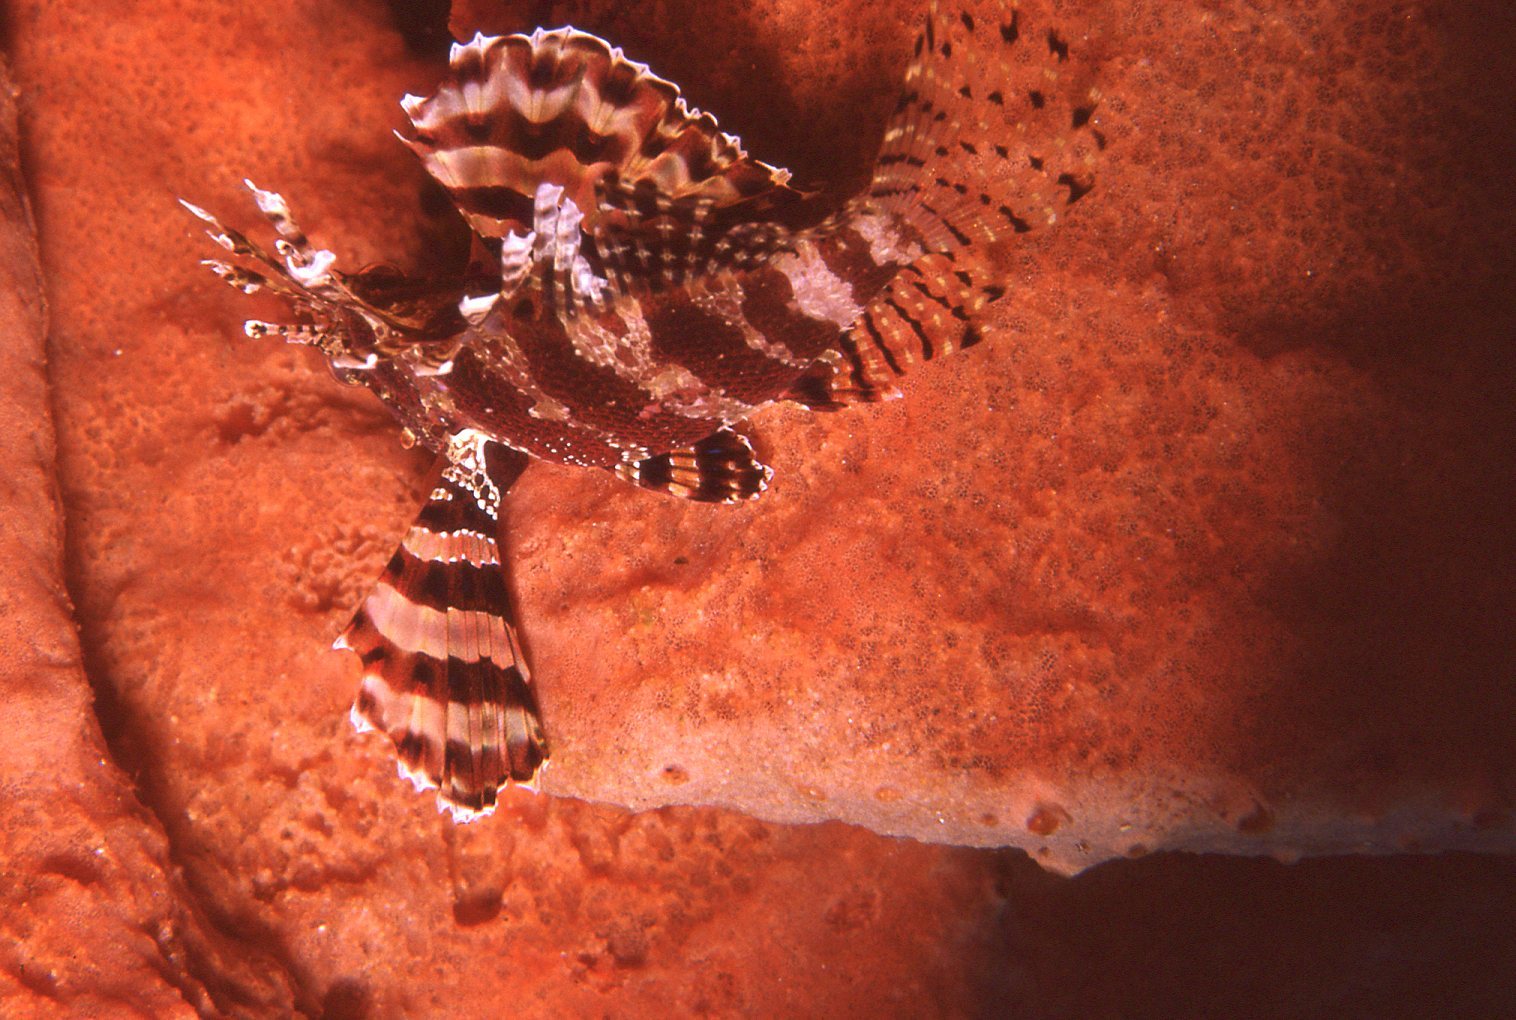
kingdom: Animalia
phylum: Chordata
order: Scorpaeniformes
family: Scorpaenidae
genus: Dendrochirus
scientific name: Dendrochirus brachypterus
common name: Shortfin turkeyfish
